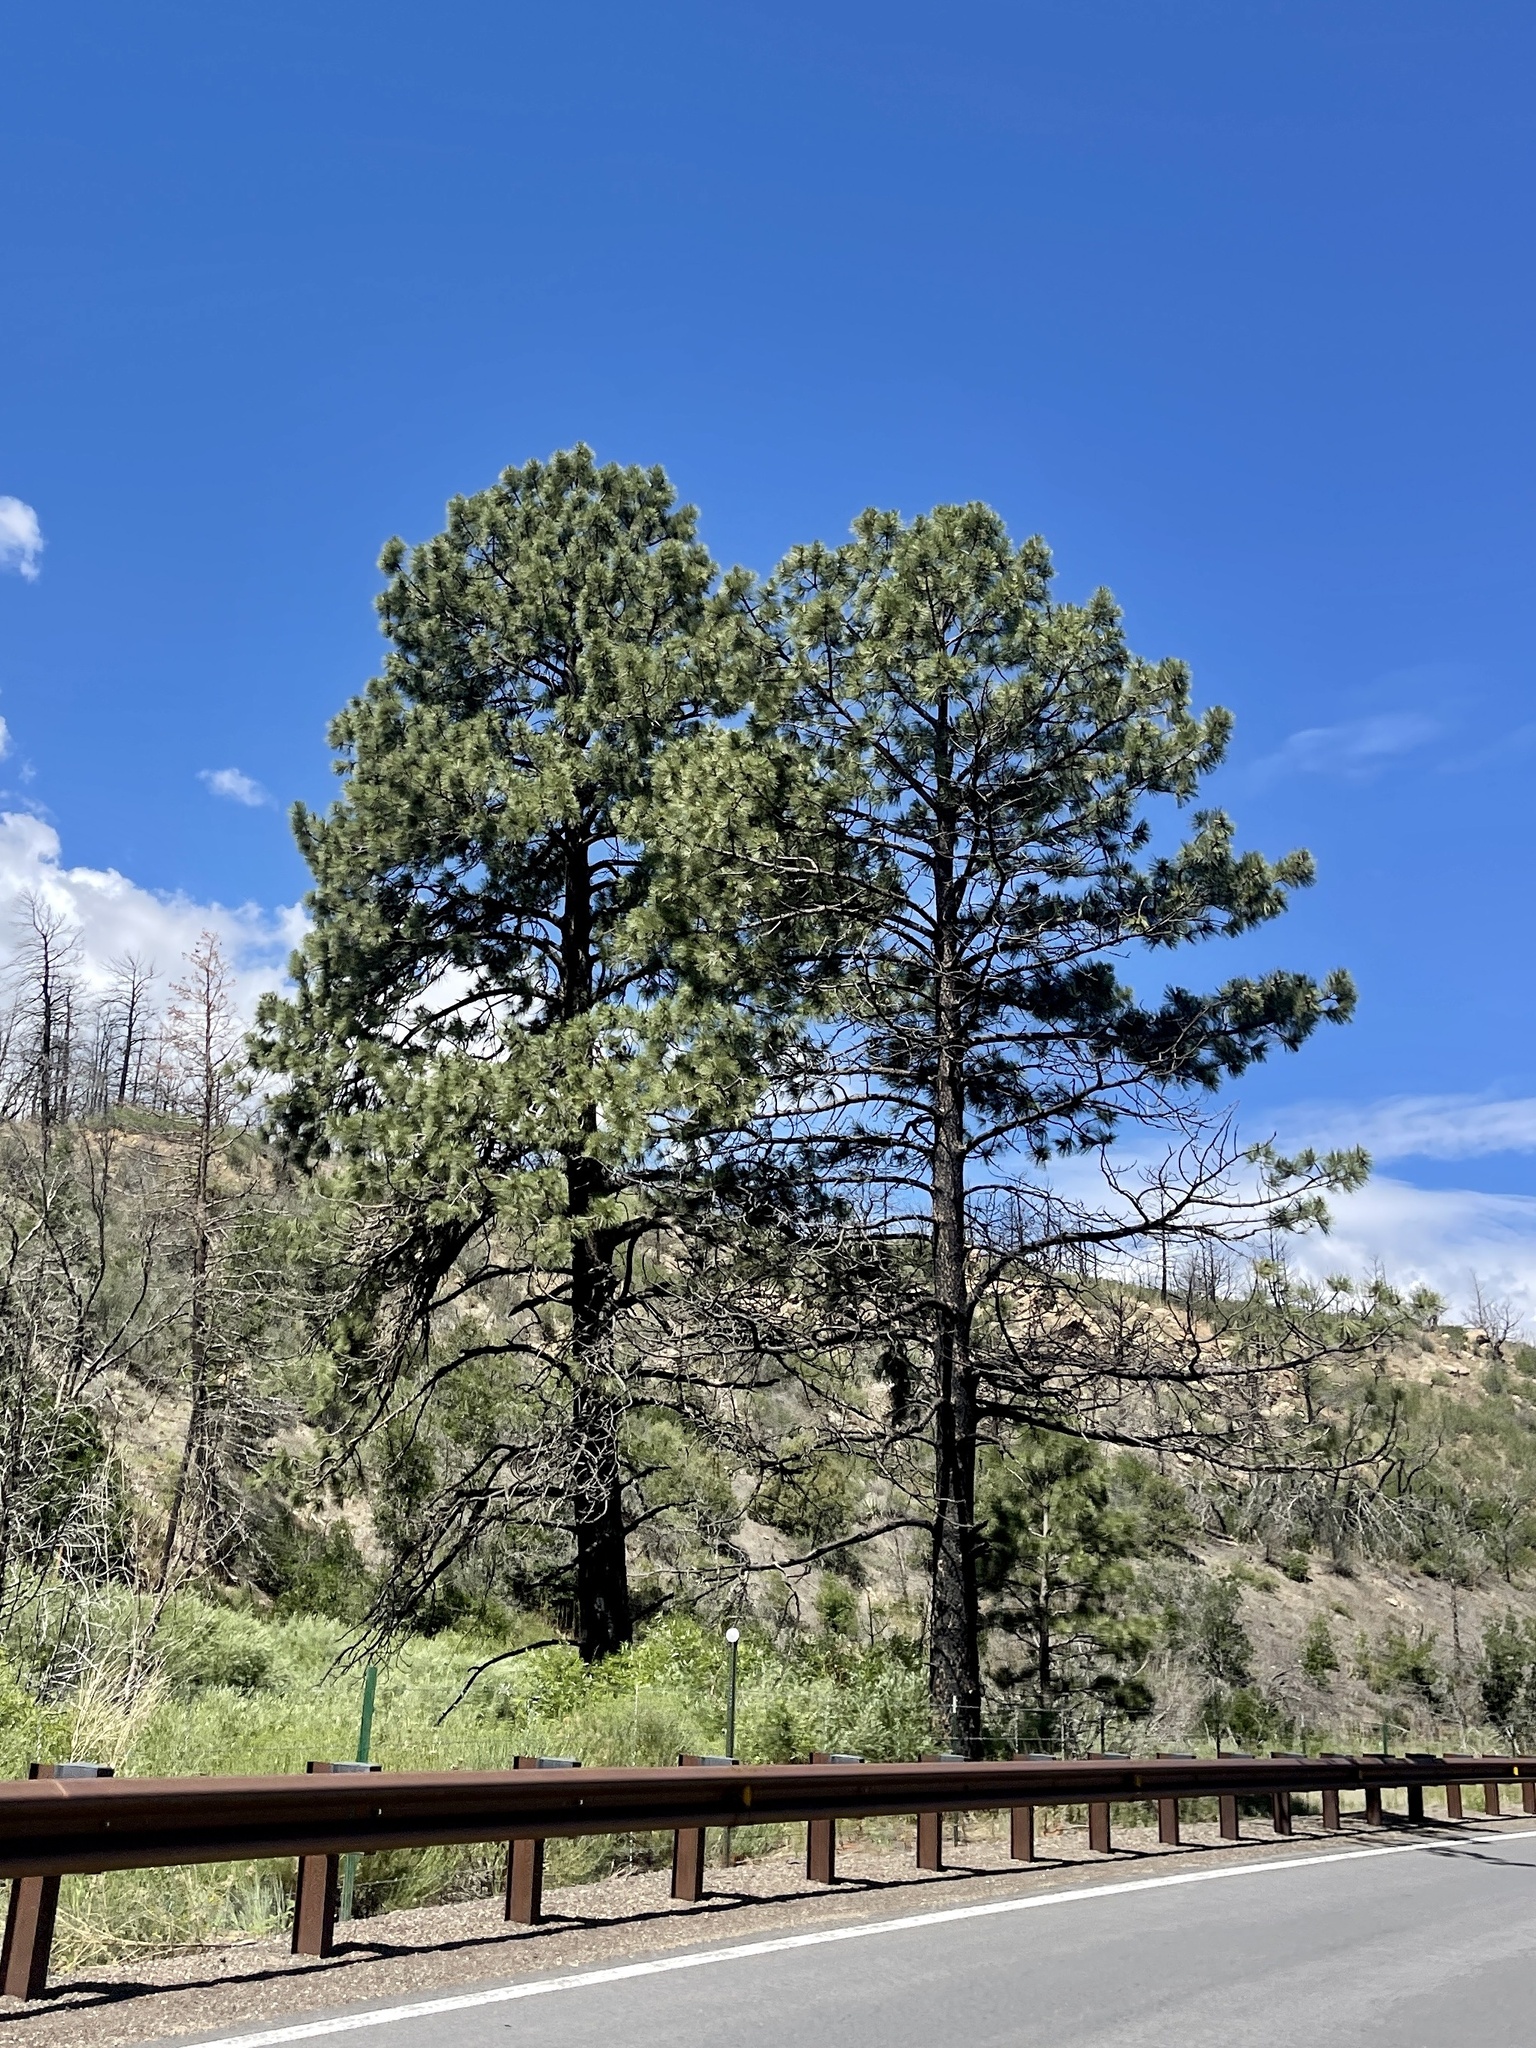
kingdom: Plantae
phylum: Tracheophyta
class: Pinopsida
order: Pinales
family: Pinaceae
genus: Pinus
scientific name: Pinus ponderosa
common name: Western yellow-pine
